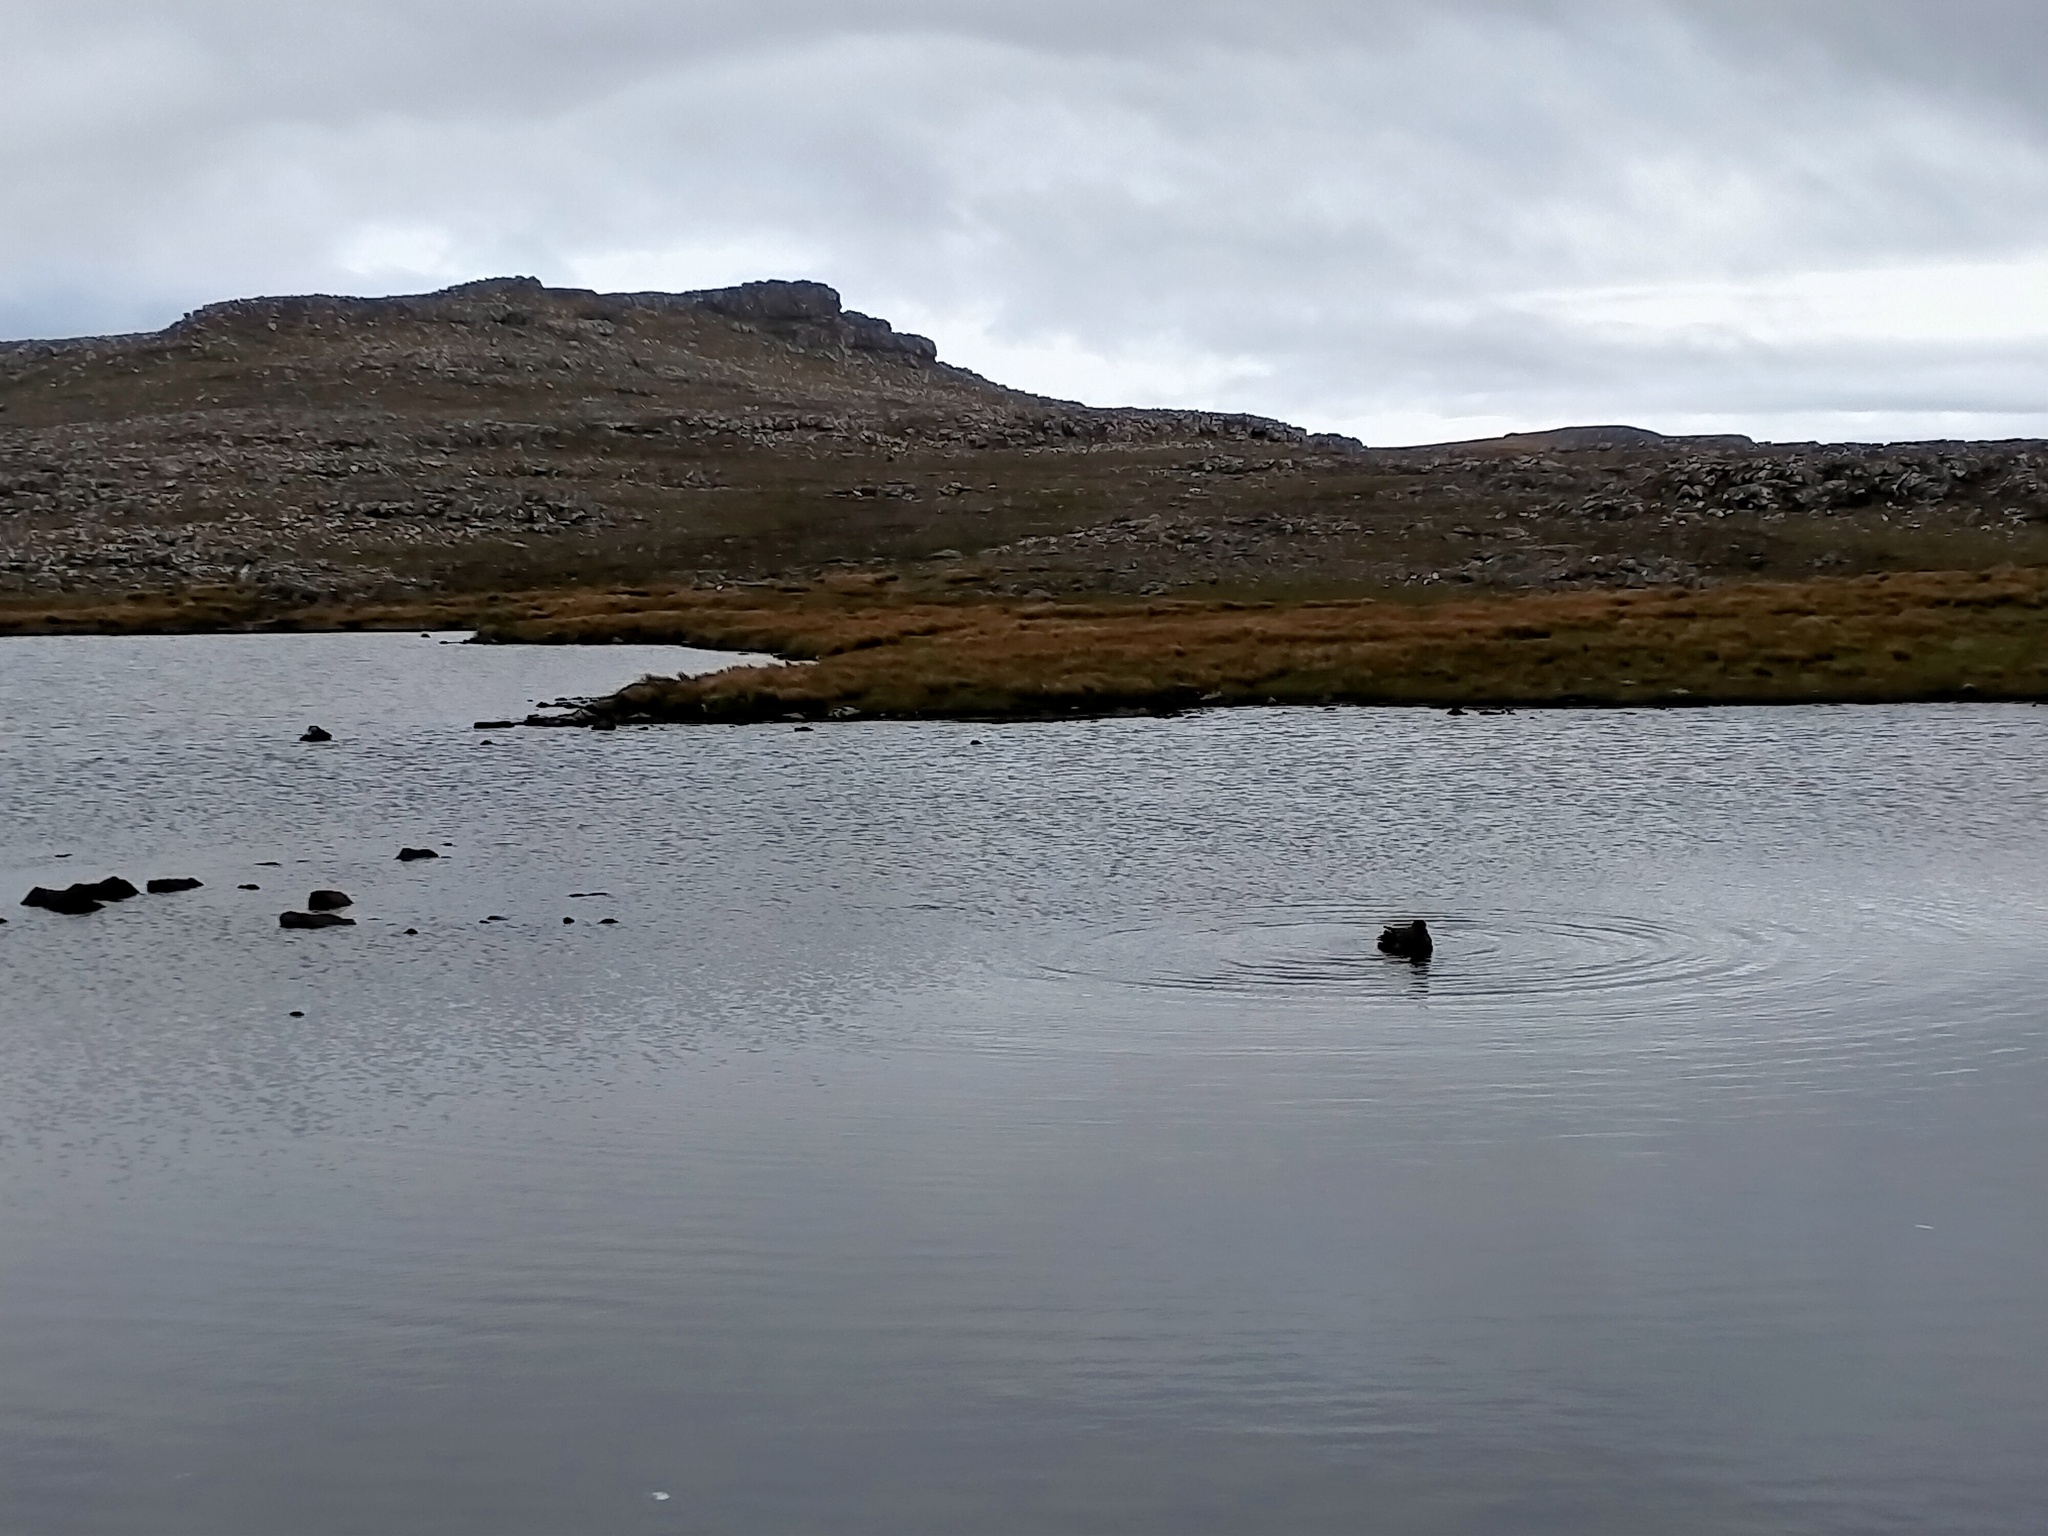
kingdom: Animalia
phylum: Chordata
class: Aves
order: Charadriiformes
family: Stercorariidae
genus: Stercorarius
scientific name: Stercorarius antarcticus
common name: Brown skua
